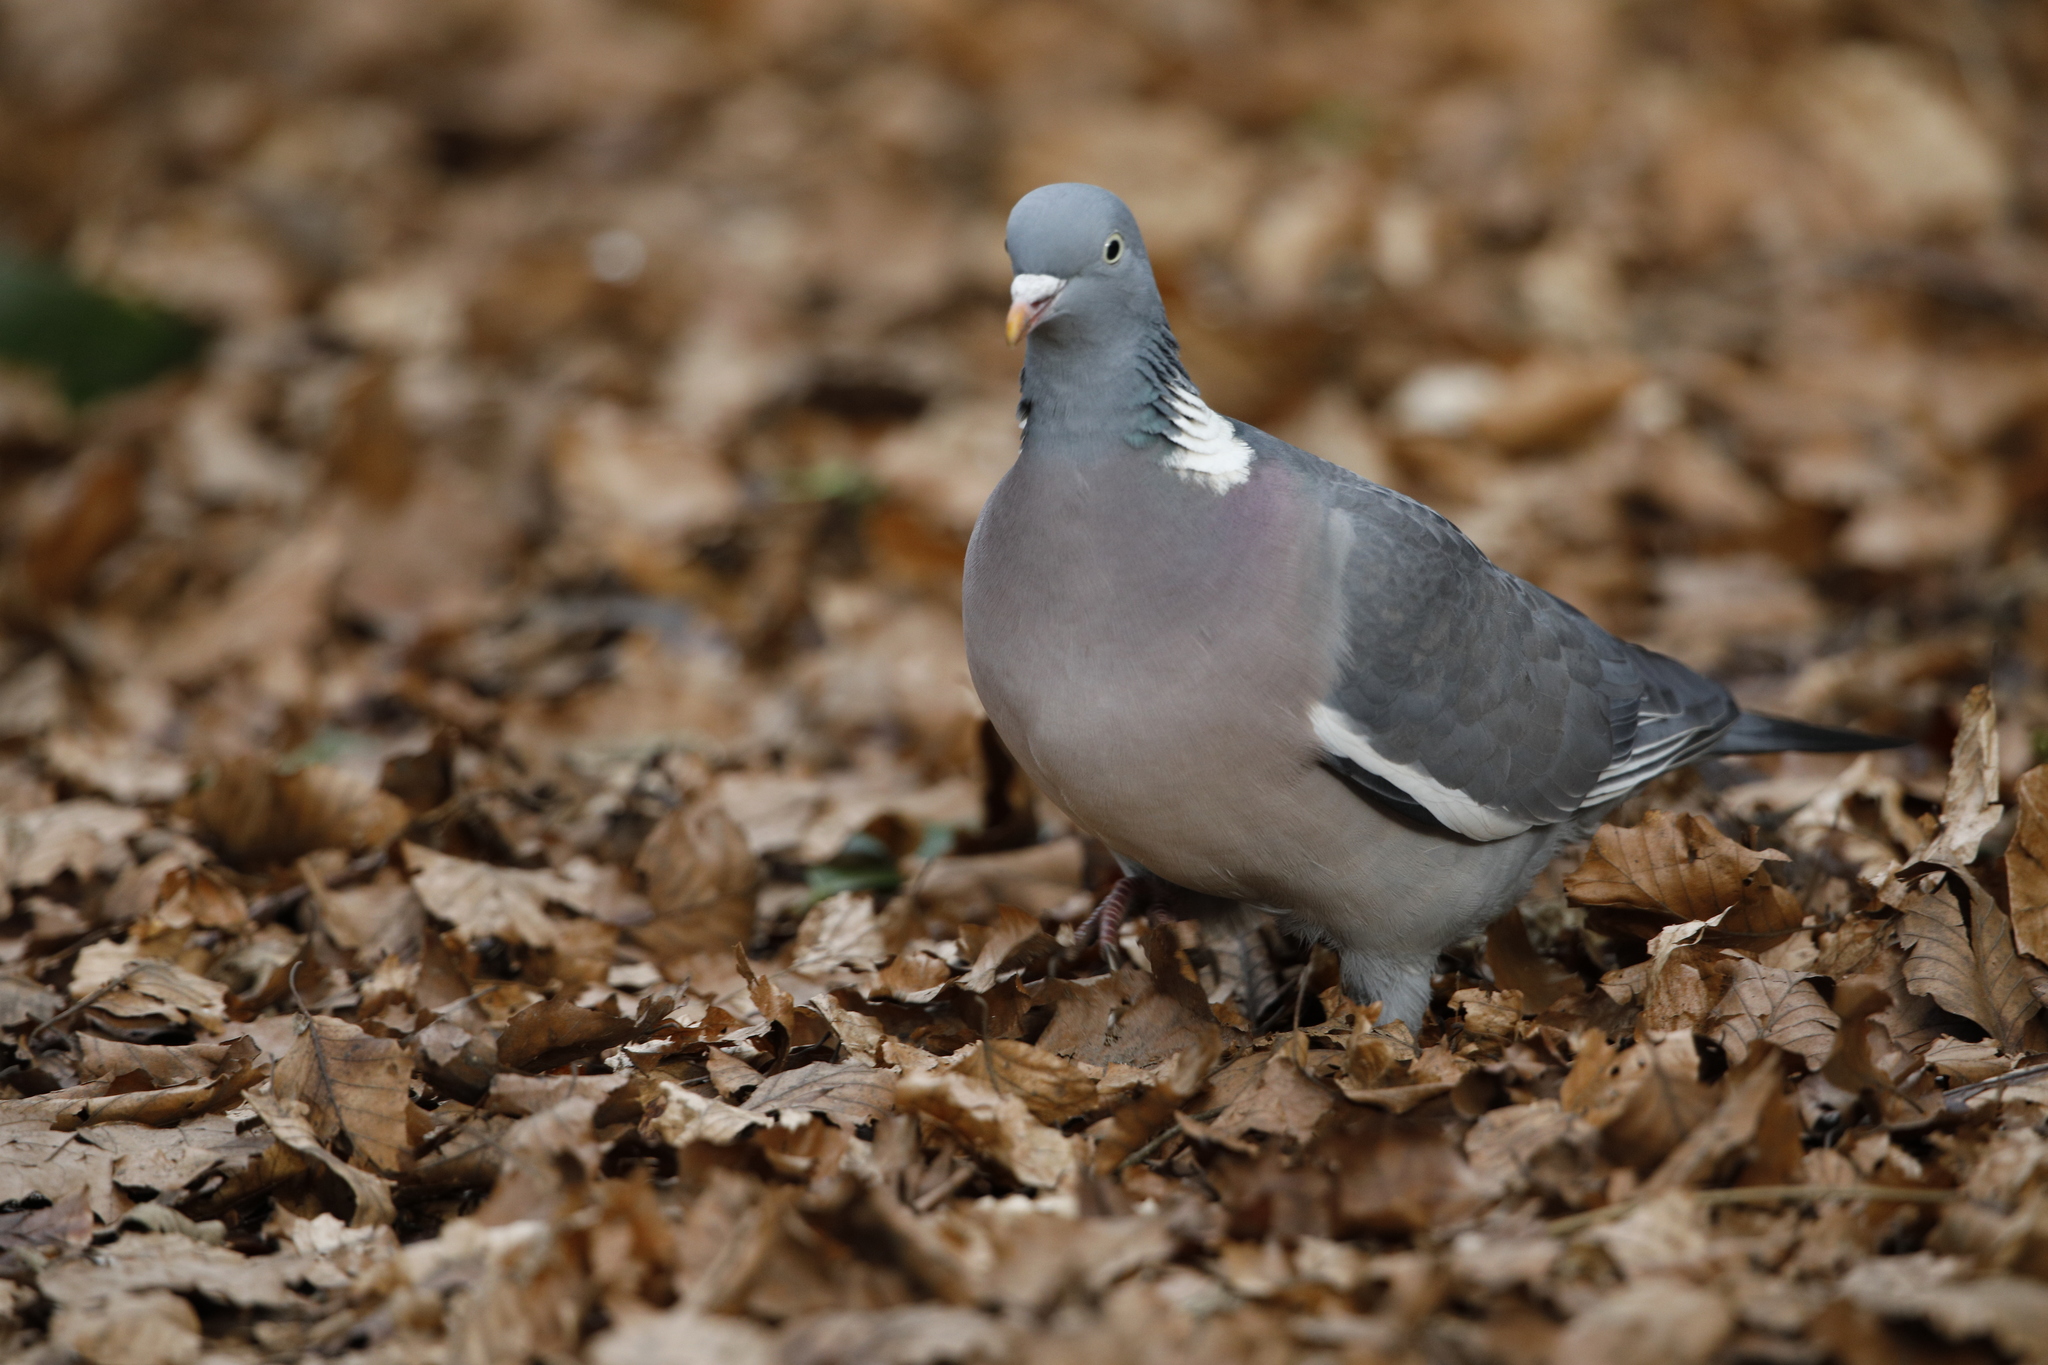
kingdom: Animalia
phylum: Chordata
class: Aves
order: Columbiformes
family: Columbidae
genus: Columba
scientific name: Columba palumbus
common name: Common wood pigeon
